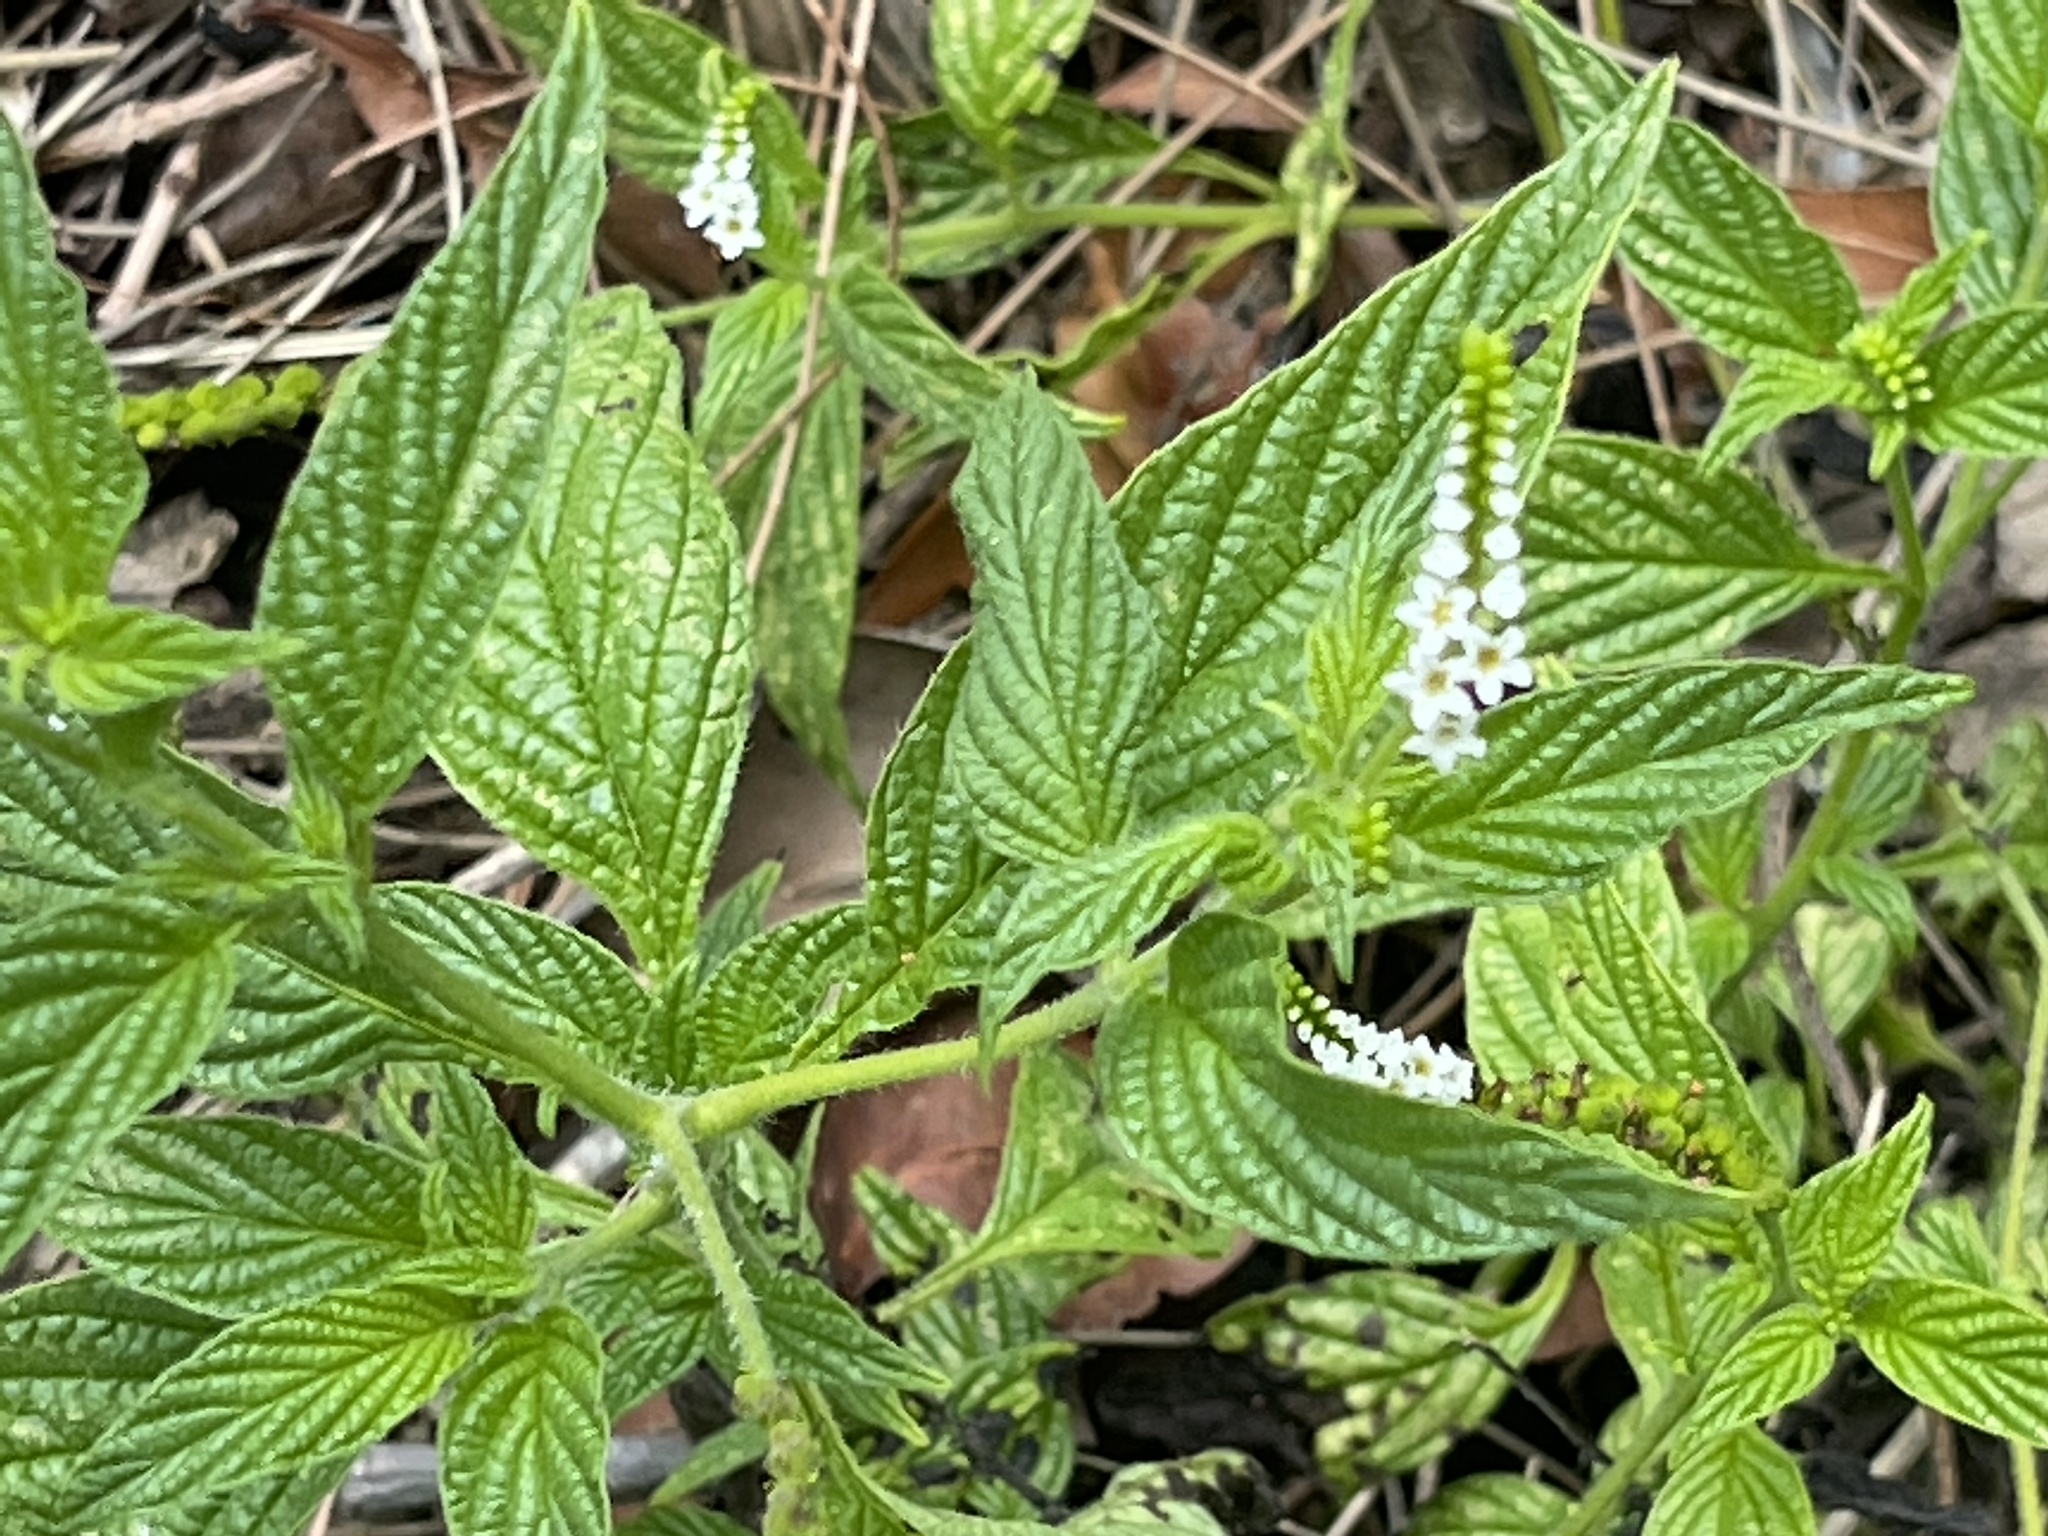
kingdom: Plantae
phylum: Tracheophyta
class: Magnoliopsida
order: Boraginales
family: Heliotropiaceae
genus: Heliotropium
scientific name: Heliotropium angiospermum
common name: Eye bright
